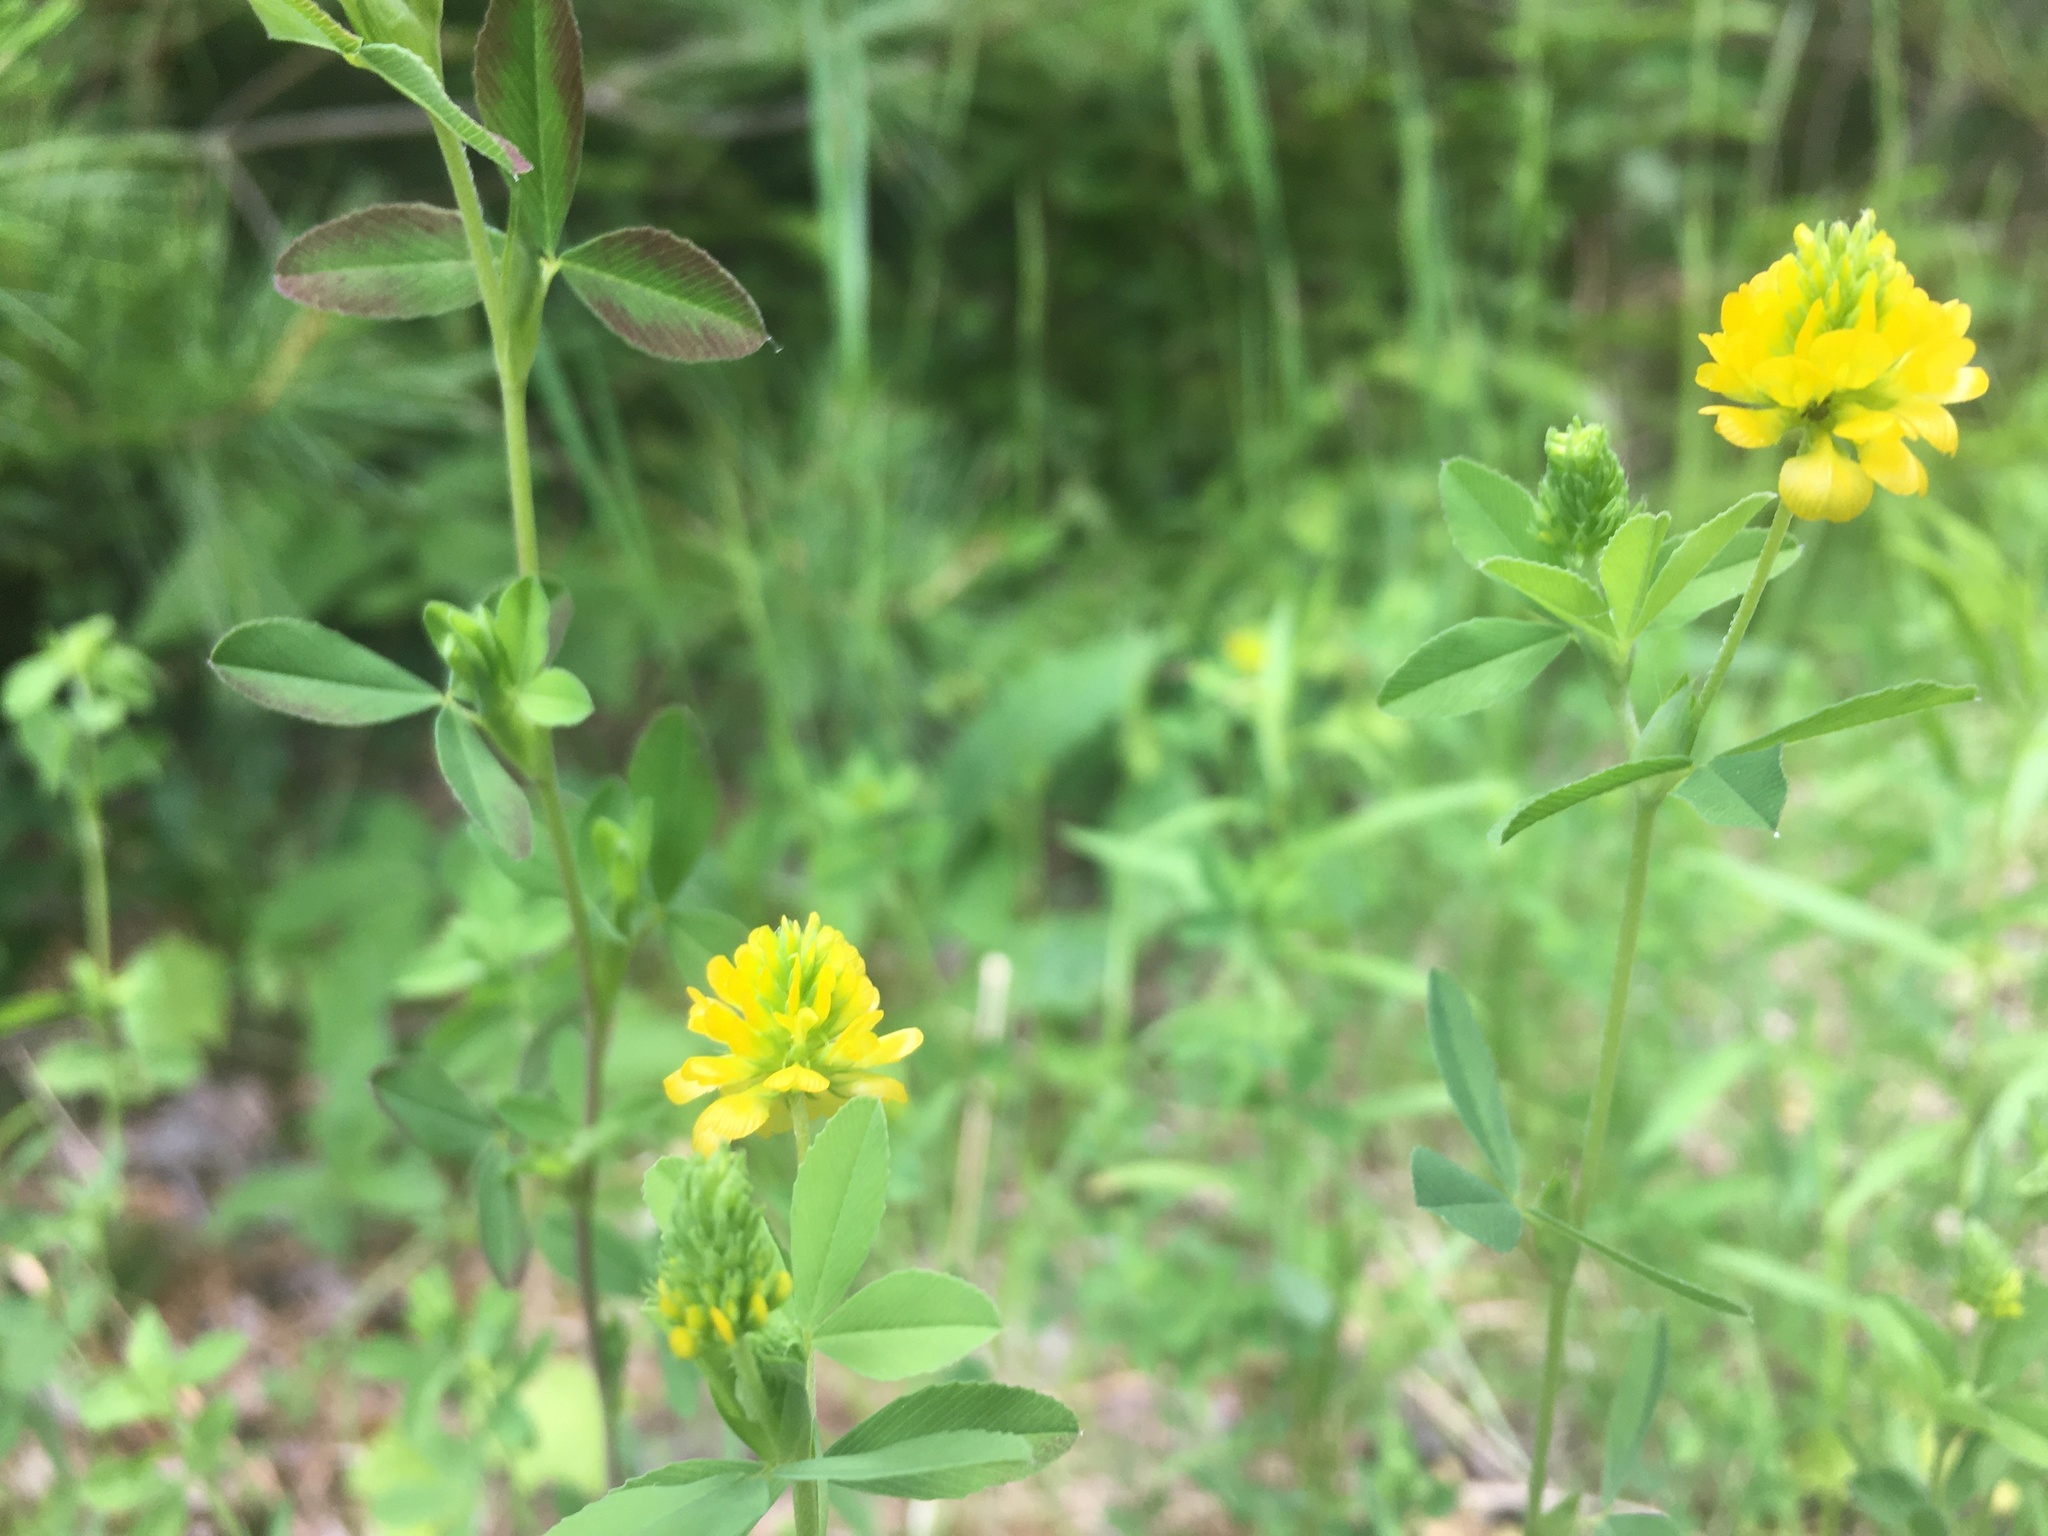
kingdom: Plantae
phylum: Tracheophyta
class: Magnoliopsida
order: Fabales
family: Fabaceae
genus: Trifolium
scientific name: Trifolium aureum
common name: Golden clover
